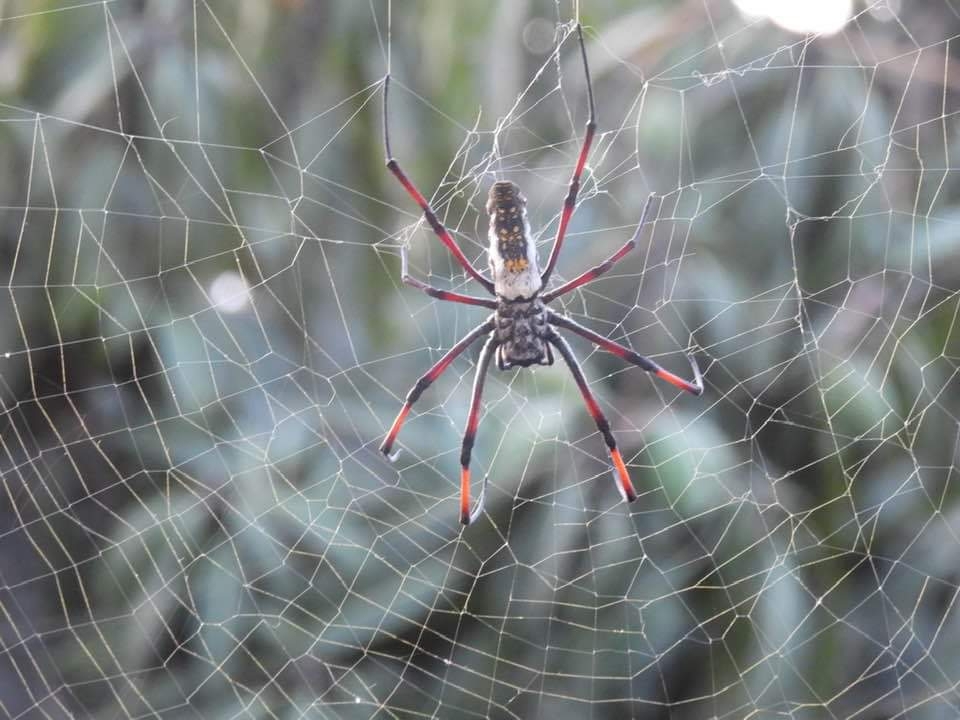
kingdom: Animalia
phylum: Arthropoda
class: Arachnida
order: Araneae
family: Araneidae
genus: Trichonephila
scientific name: Trichonephila inaurata
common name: Red-legged golden orb weaver
